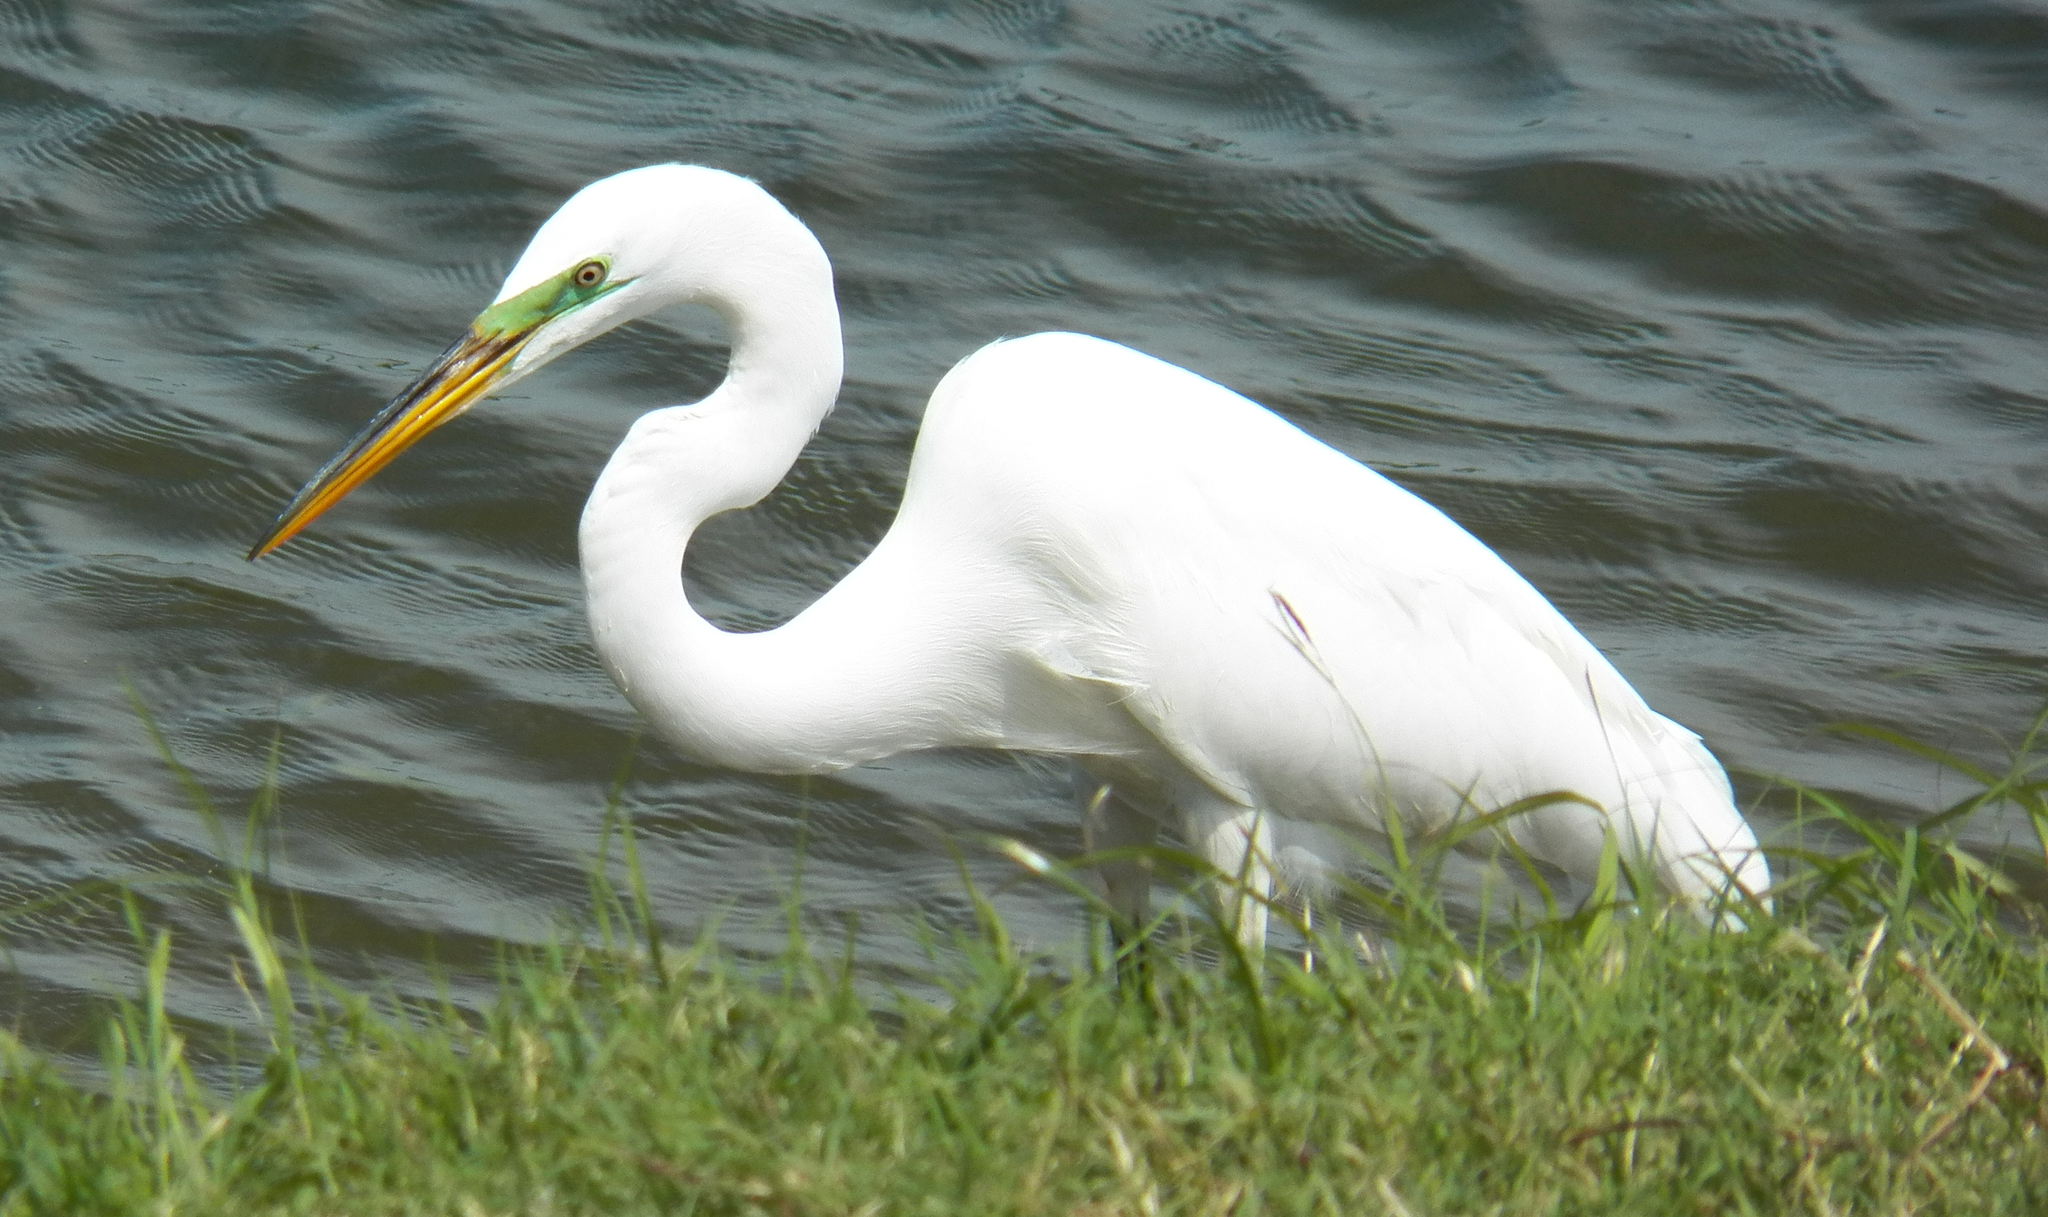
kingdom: Animalia
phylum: Chordata
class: Aves
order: Pelecaniformes
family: Ardeidae
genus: Ardea
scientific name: Ardea alba
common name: Great egret
